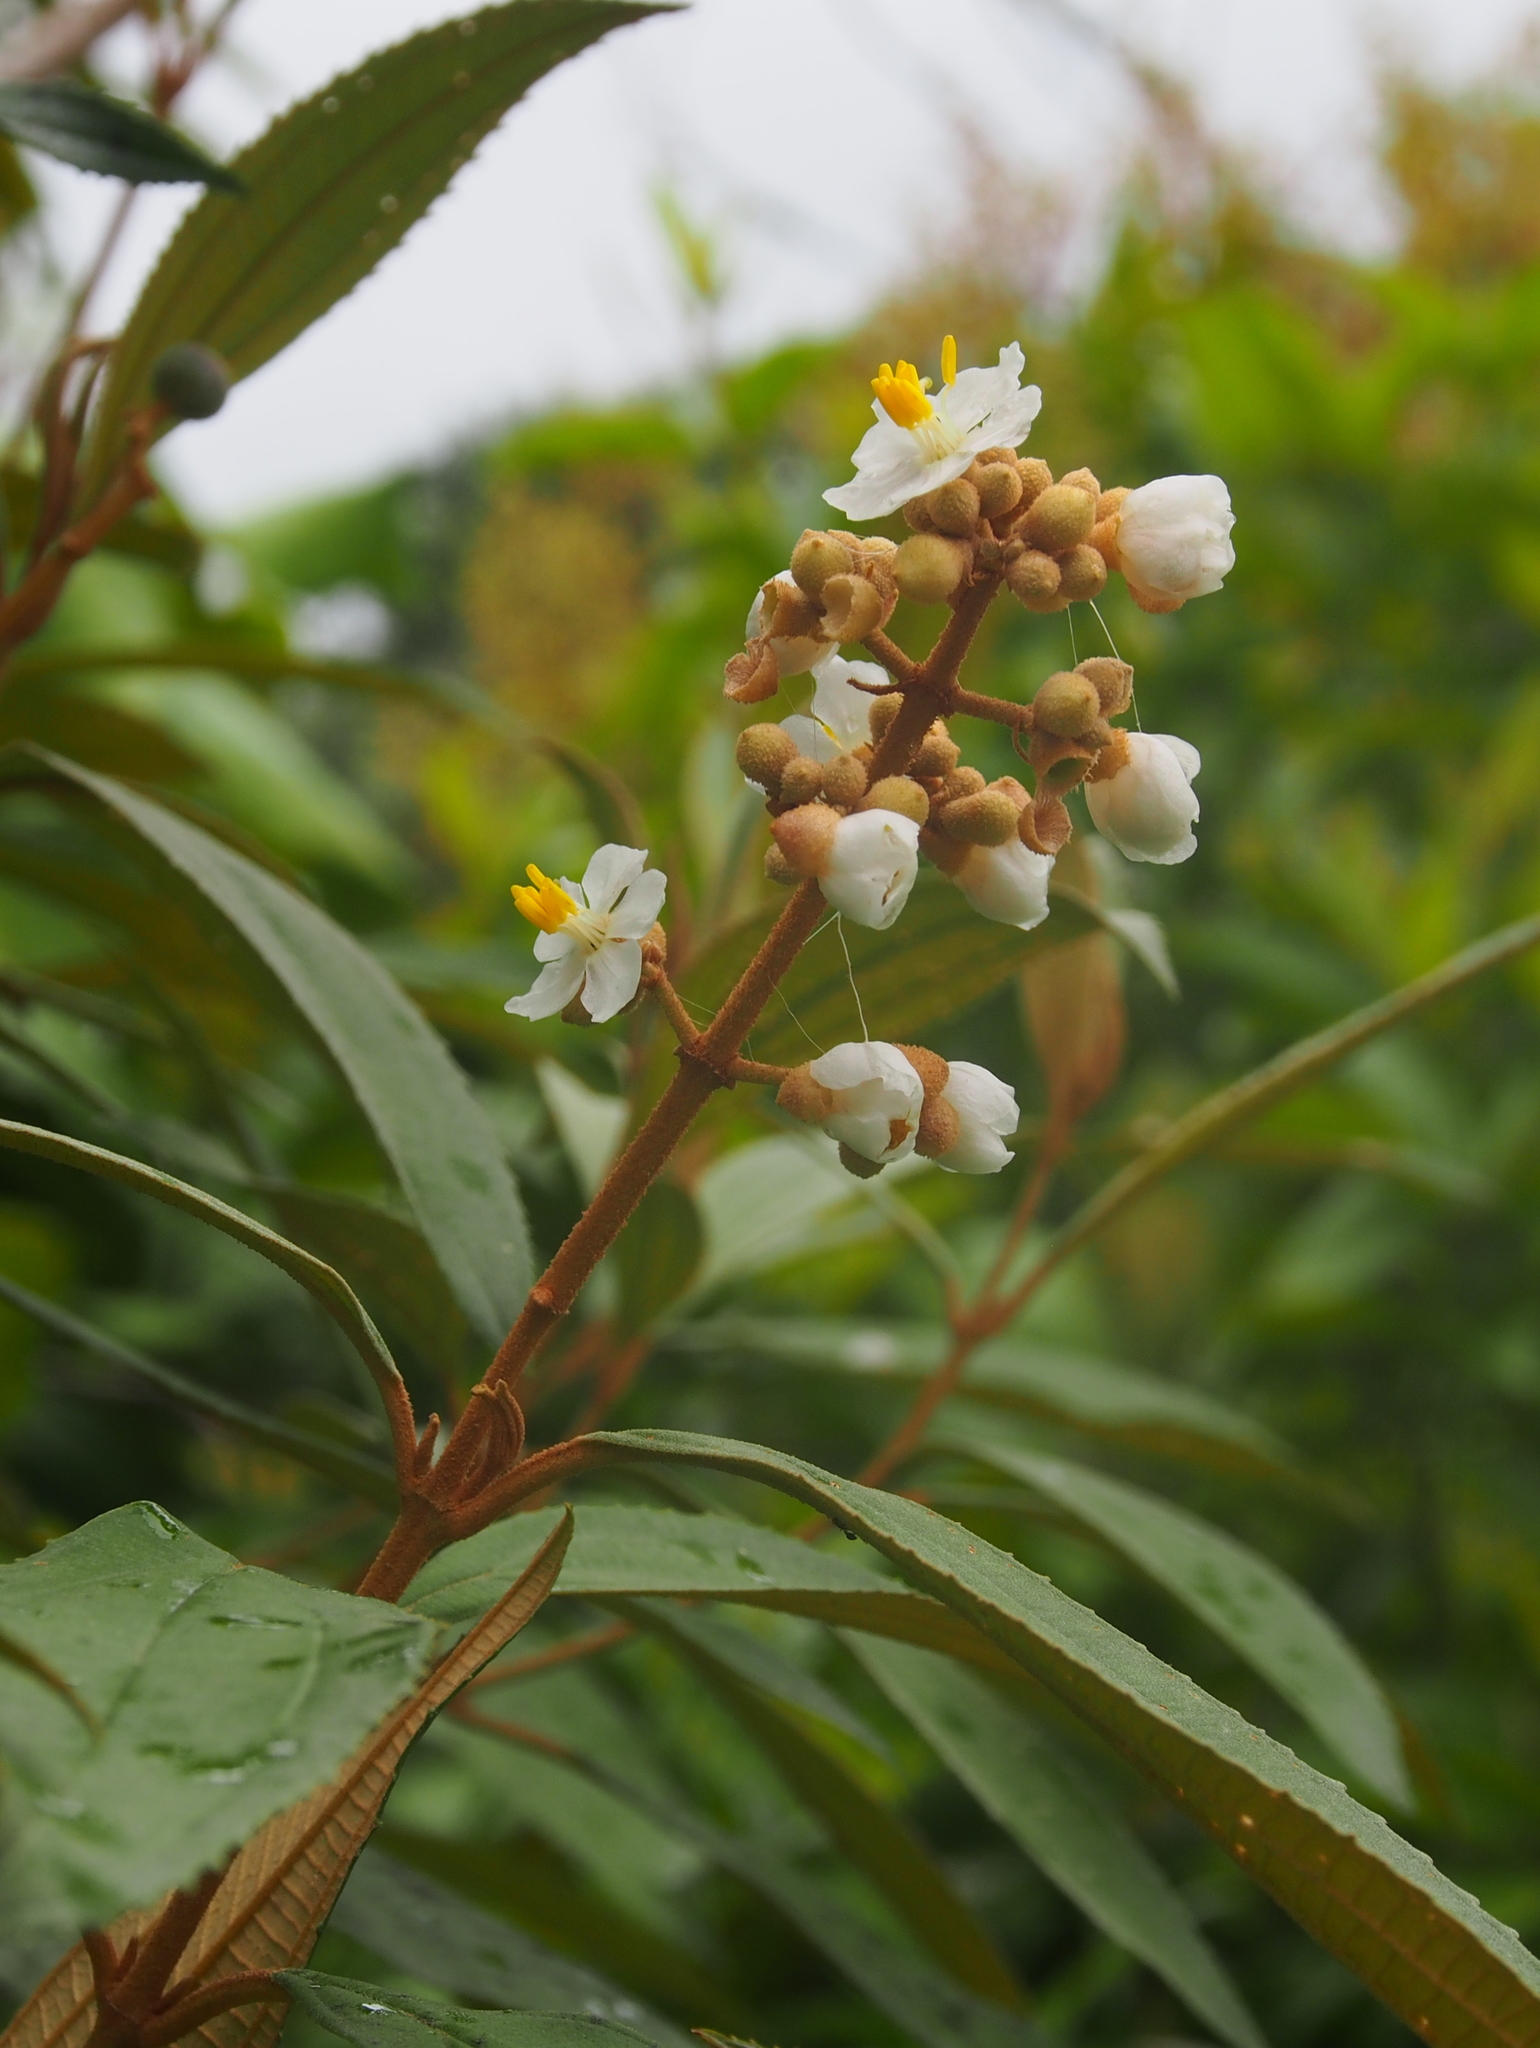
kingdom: Plantae
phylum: Tracheophyta
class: Magnoliopsida
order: Myrtales
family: Melastomataceae
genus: Miconia
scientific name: Miconia xalapensis
